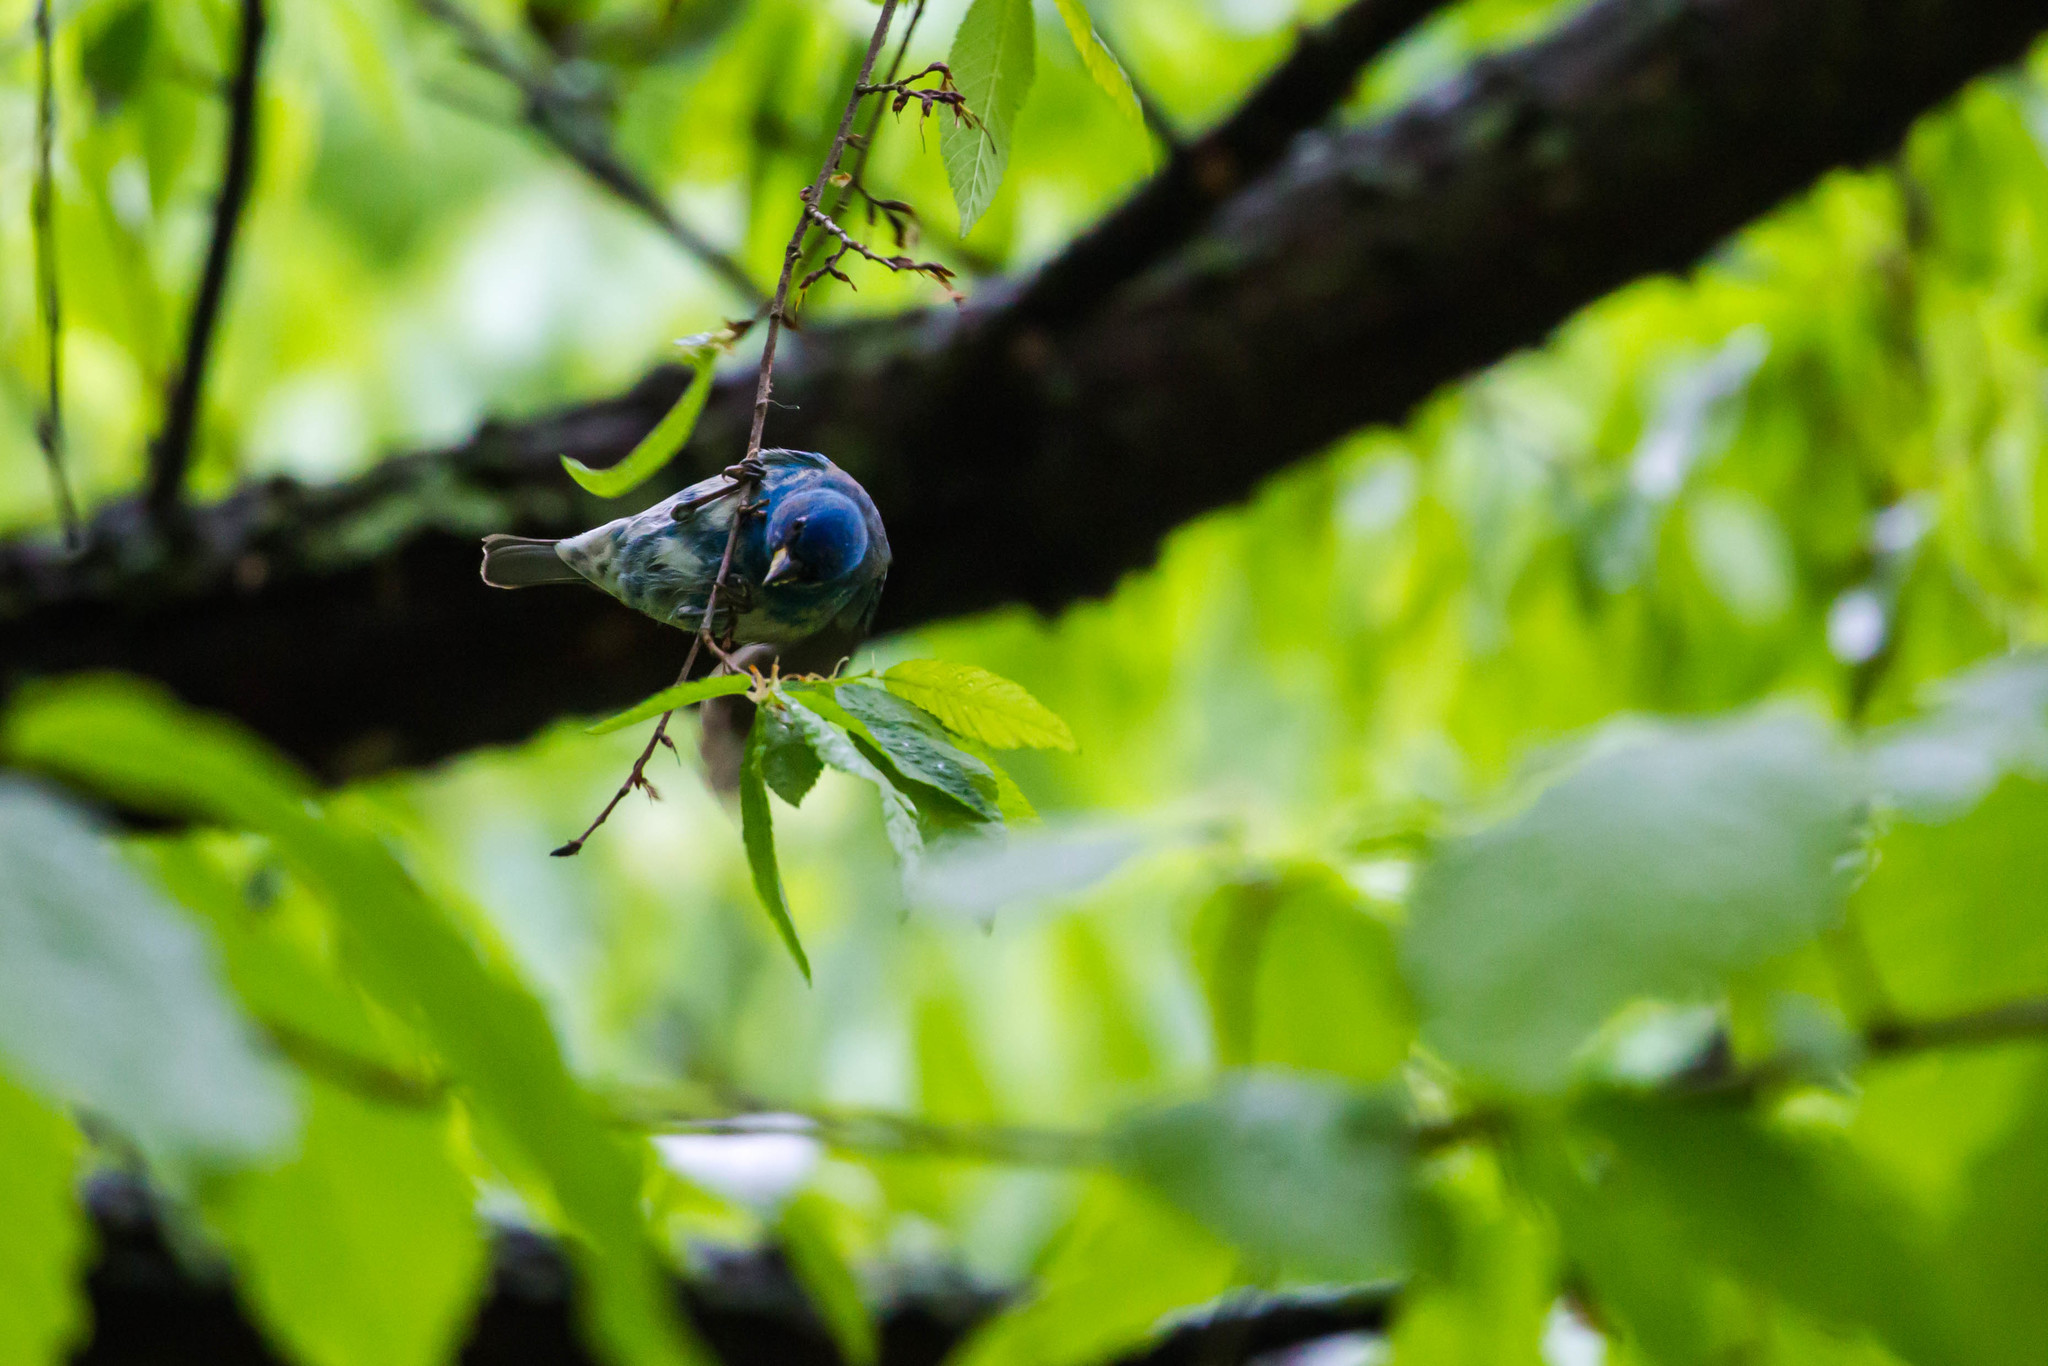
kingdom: Animalia
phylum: Chordata
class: Aves
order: Passeriformes
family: Cardinalidae
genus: Passerina
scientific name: Passerina cyanea
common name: Indigo bunting
